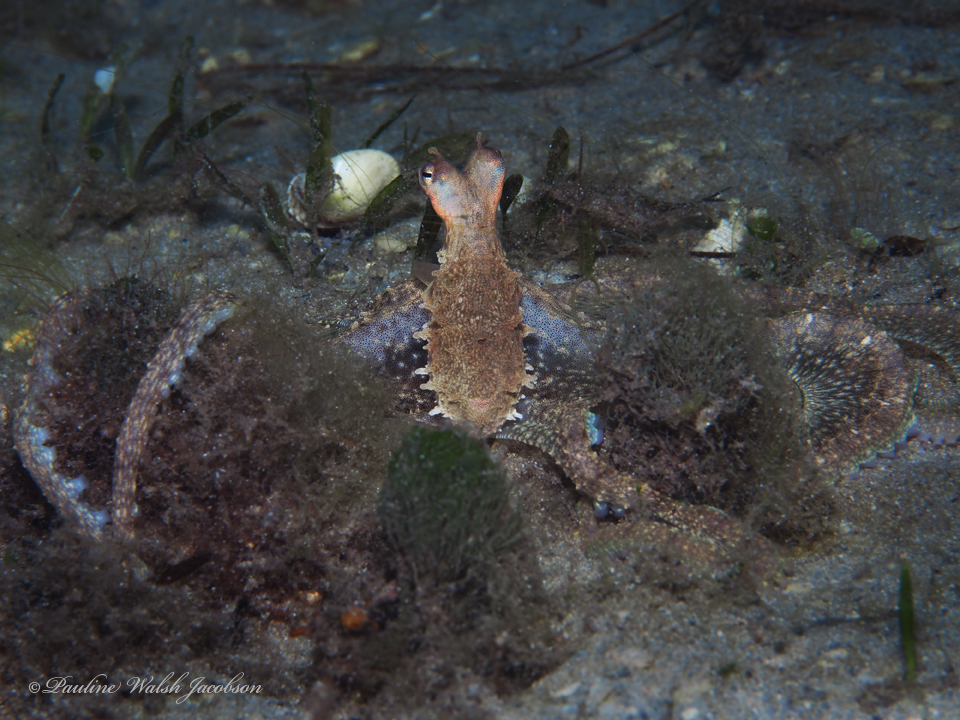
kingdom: Animalia
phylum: Mollusca
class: Cephalopoda
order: Octopoda
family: Octopodidae
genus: Macrotritopus
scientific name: Macrotritopus defilippi
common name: Lilliput longarm octopus
